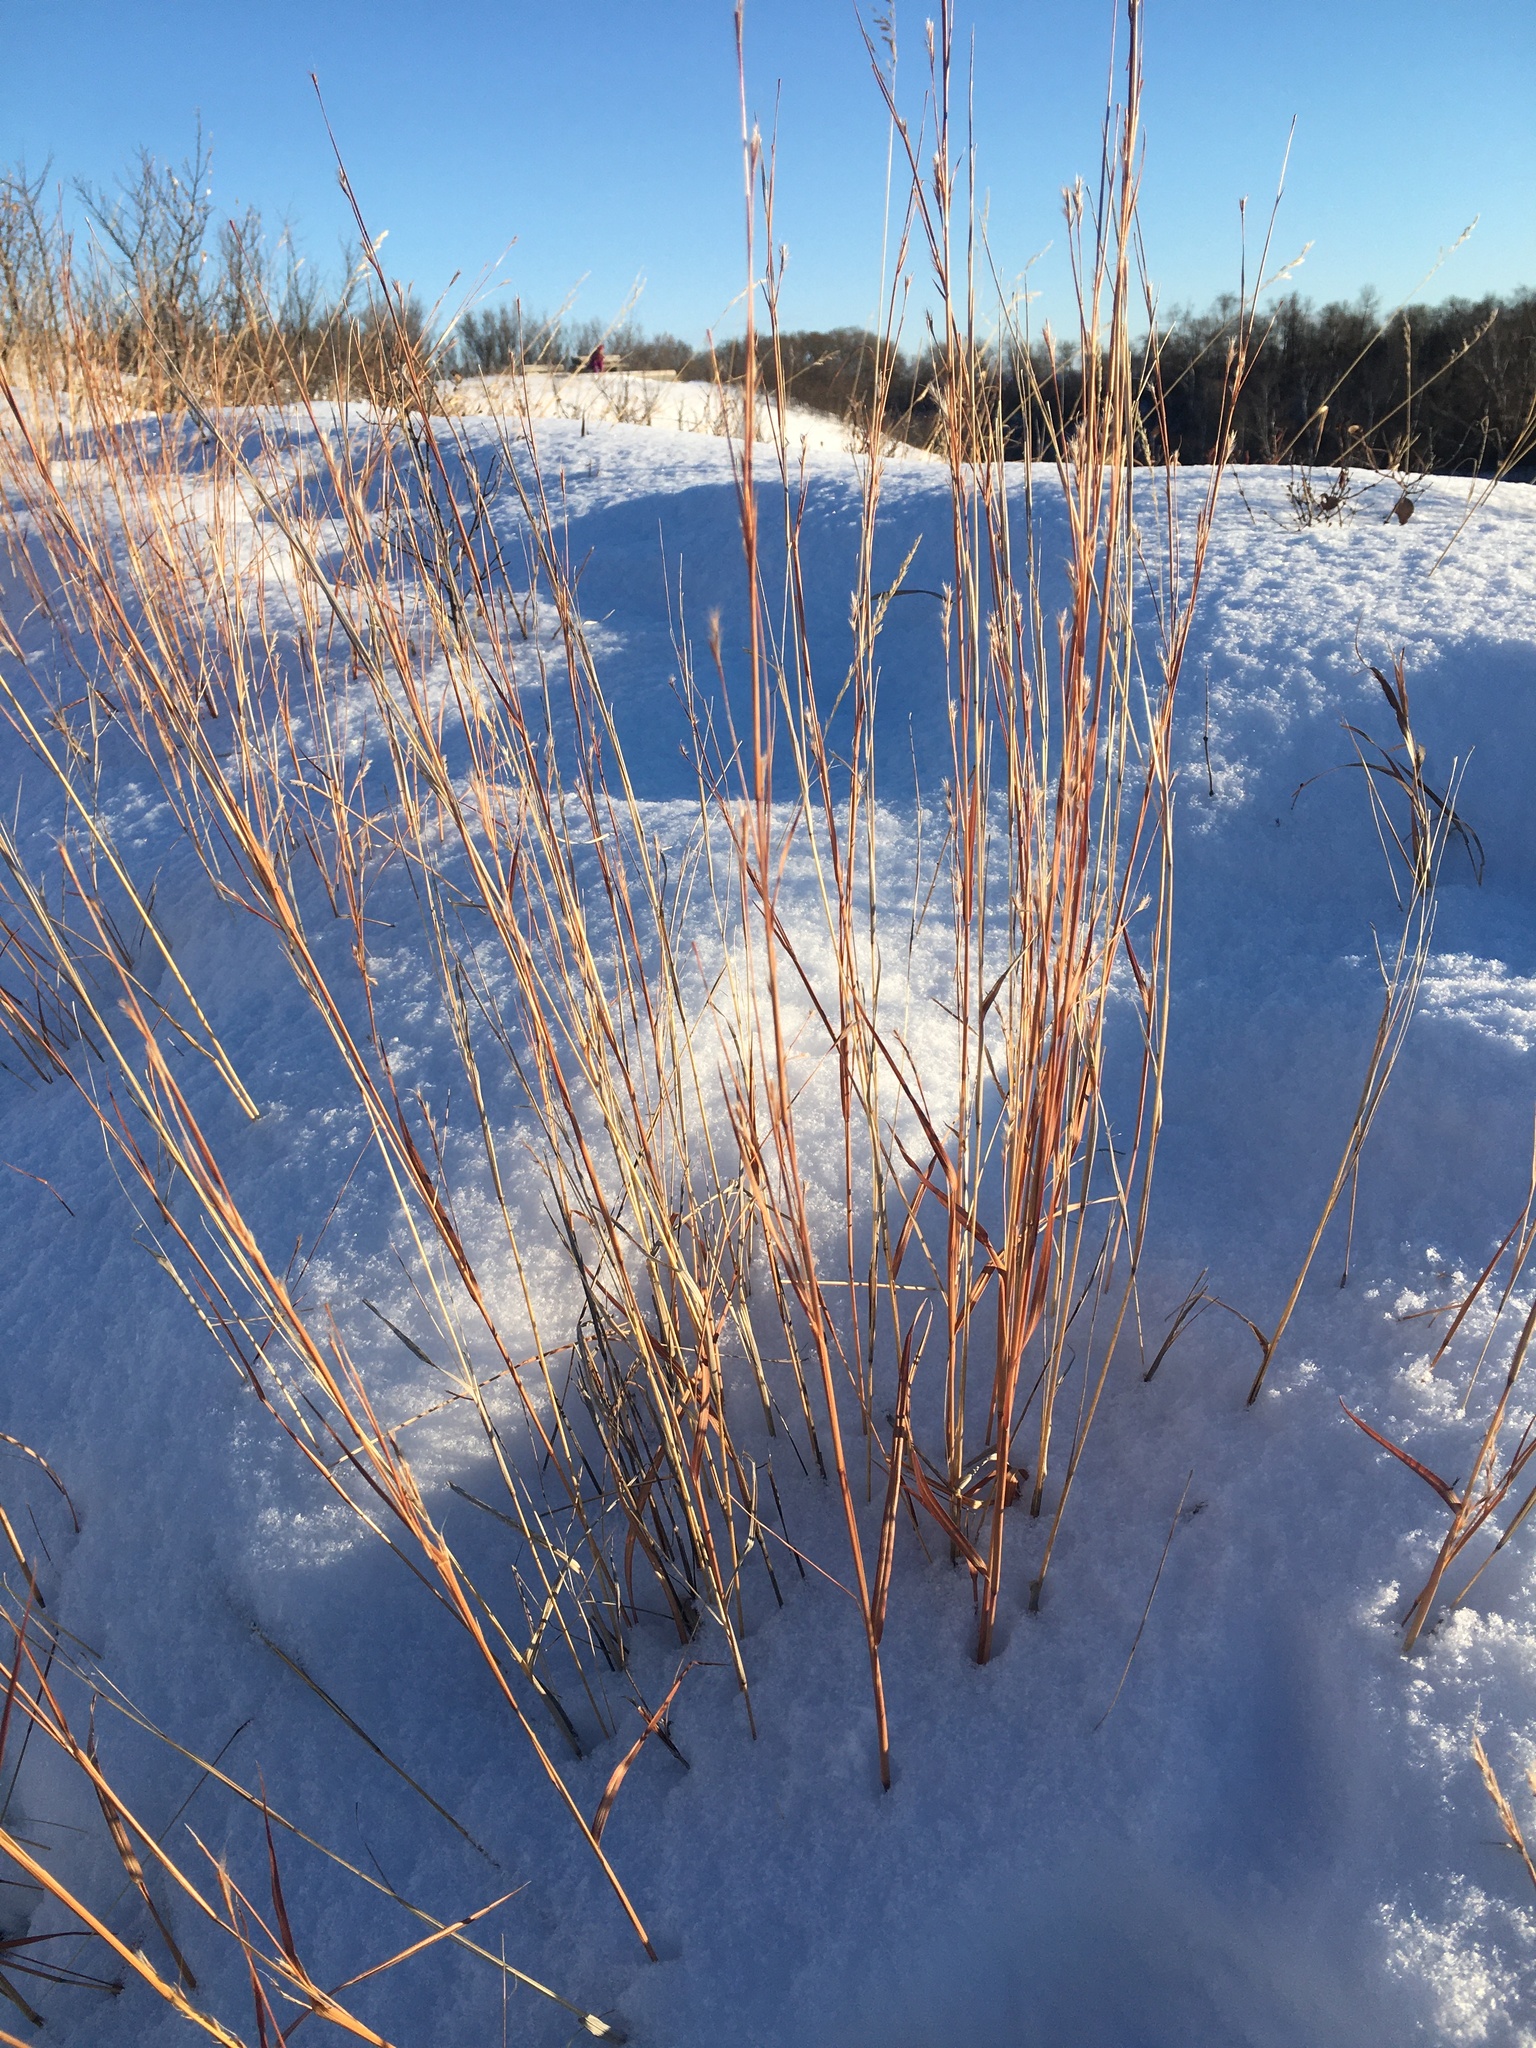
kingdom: Plantae
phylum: Tracheophyta
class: Liliopsida
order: Poales
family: Poaceae
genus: Schizachyrium
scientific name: Schizachyrium scoparium
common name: Little bluestem
